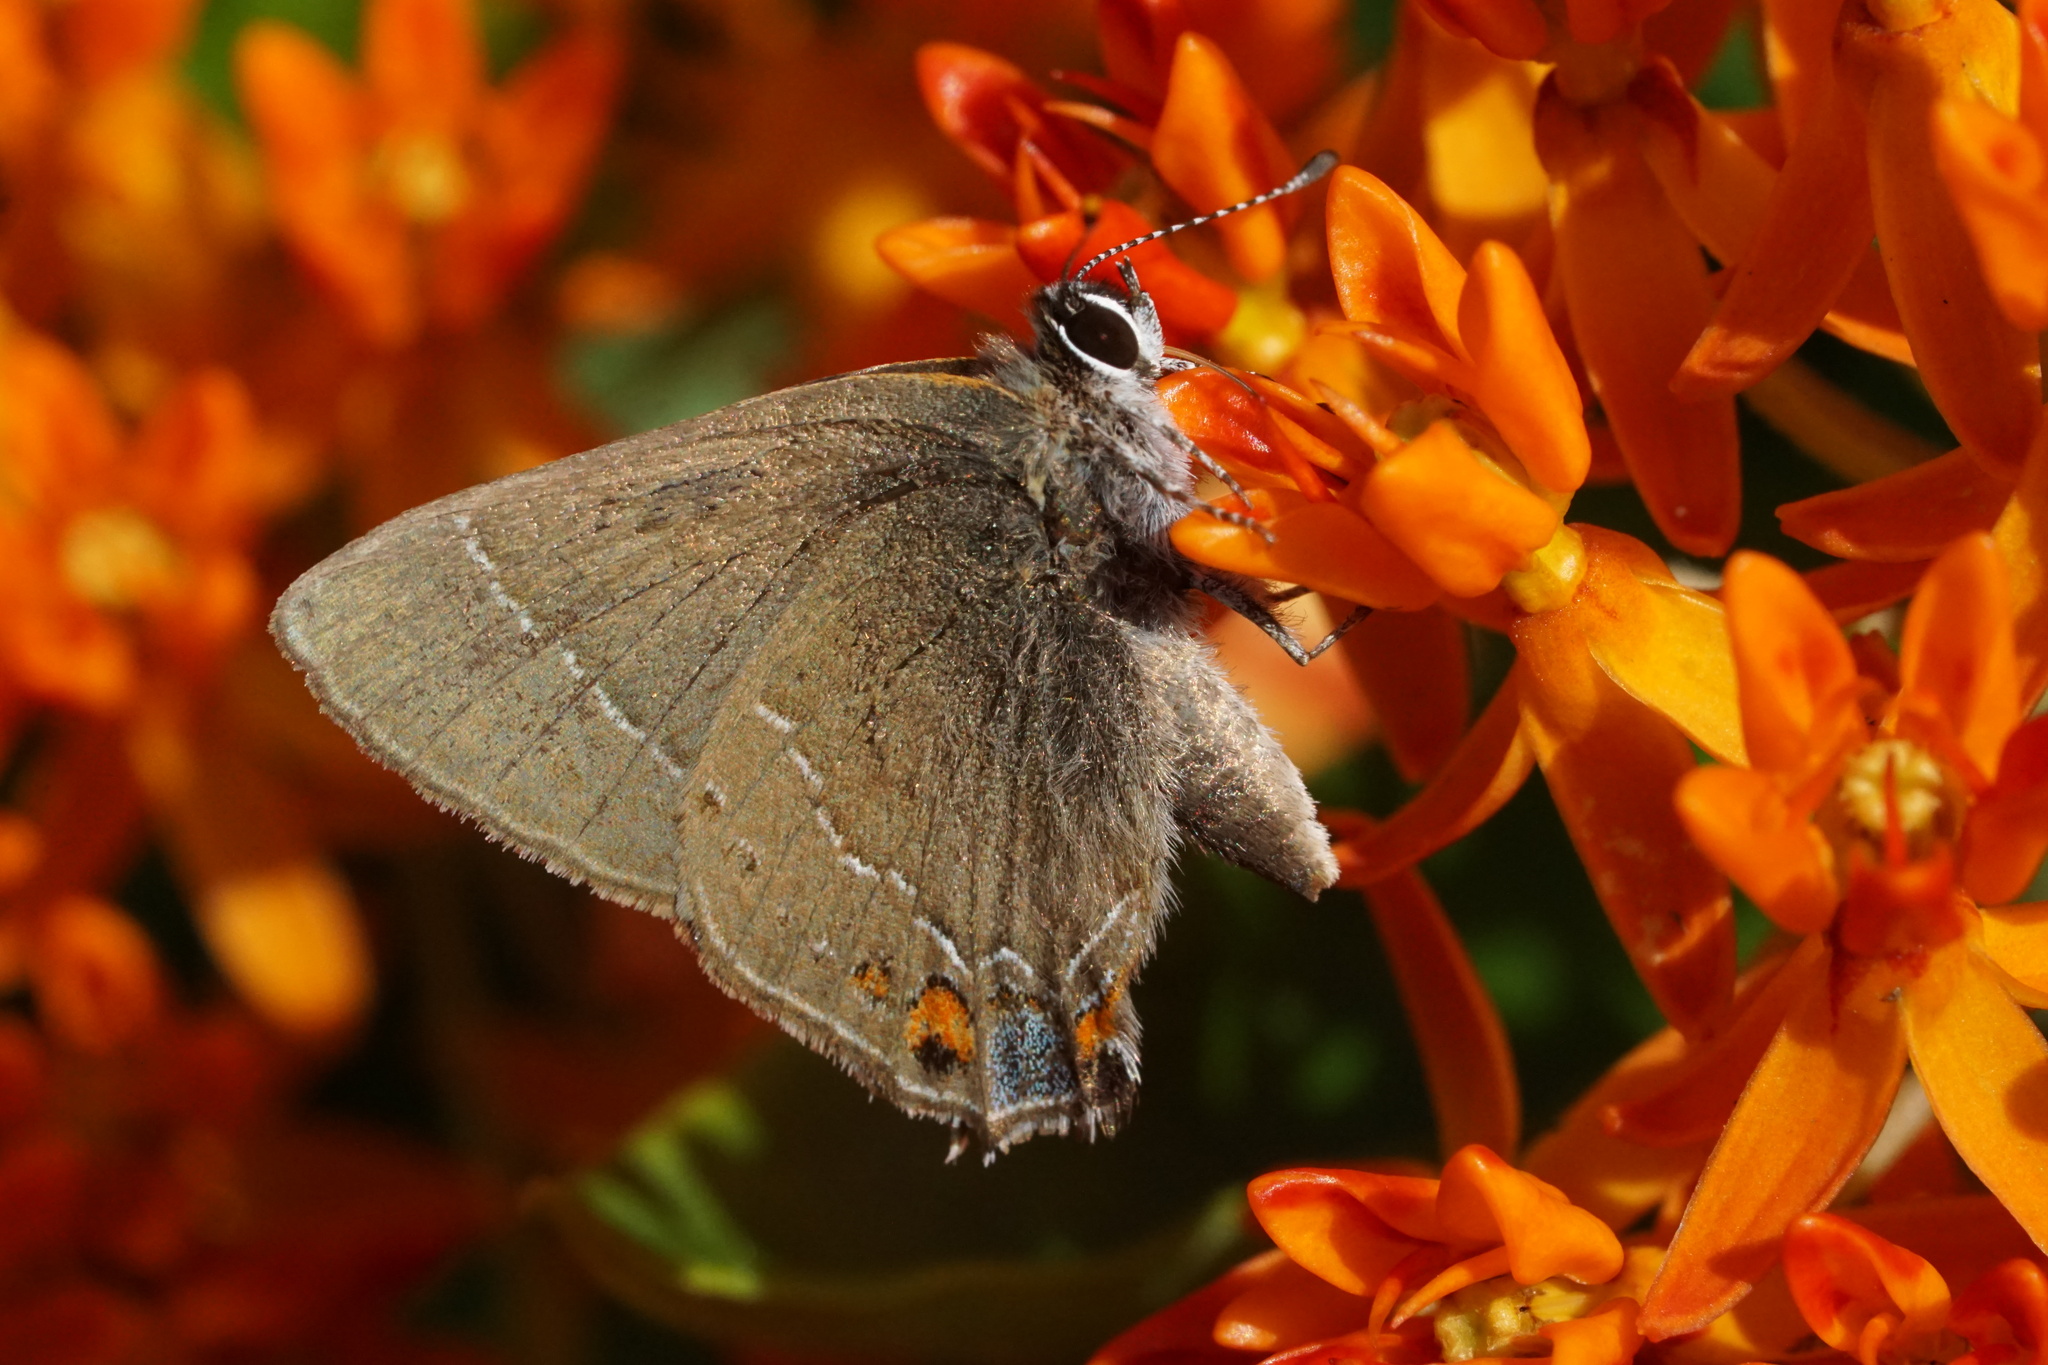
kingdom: Animalia
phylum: Arthropoda
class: Insecta
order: Lepidoptera
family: Lycaenidae
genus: Fixsenia
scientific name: Fixsenia favonius
